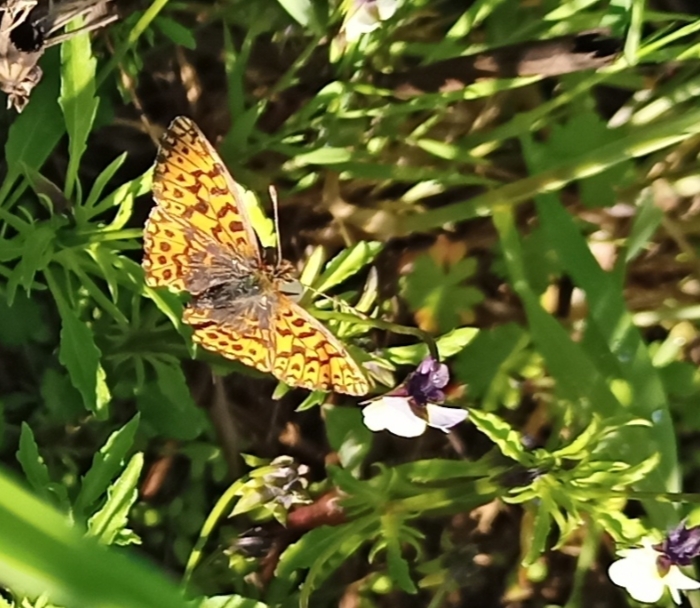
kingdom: Animalia
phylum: Arthropoda
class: Insecta
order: Lepidoptera
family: Nymphalidae
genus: Boloria
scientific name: Boloria dia
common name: Weaver's fritillary
